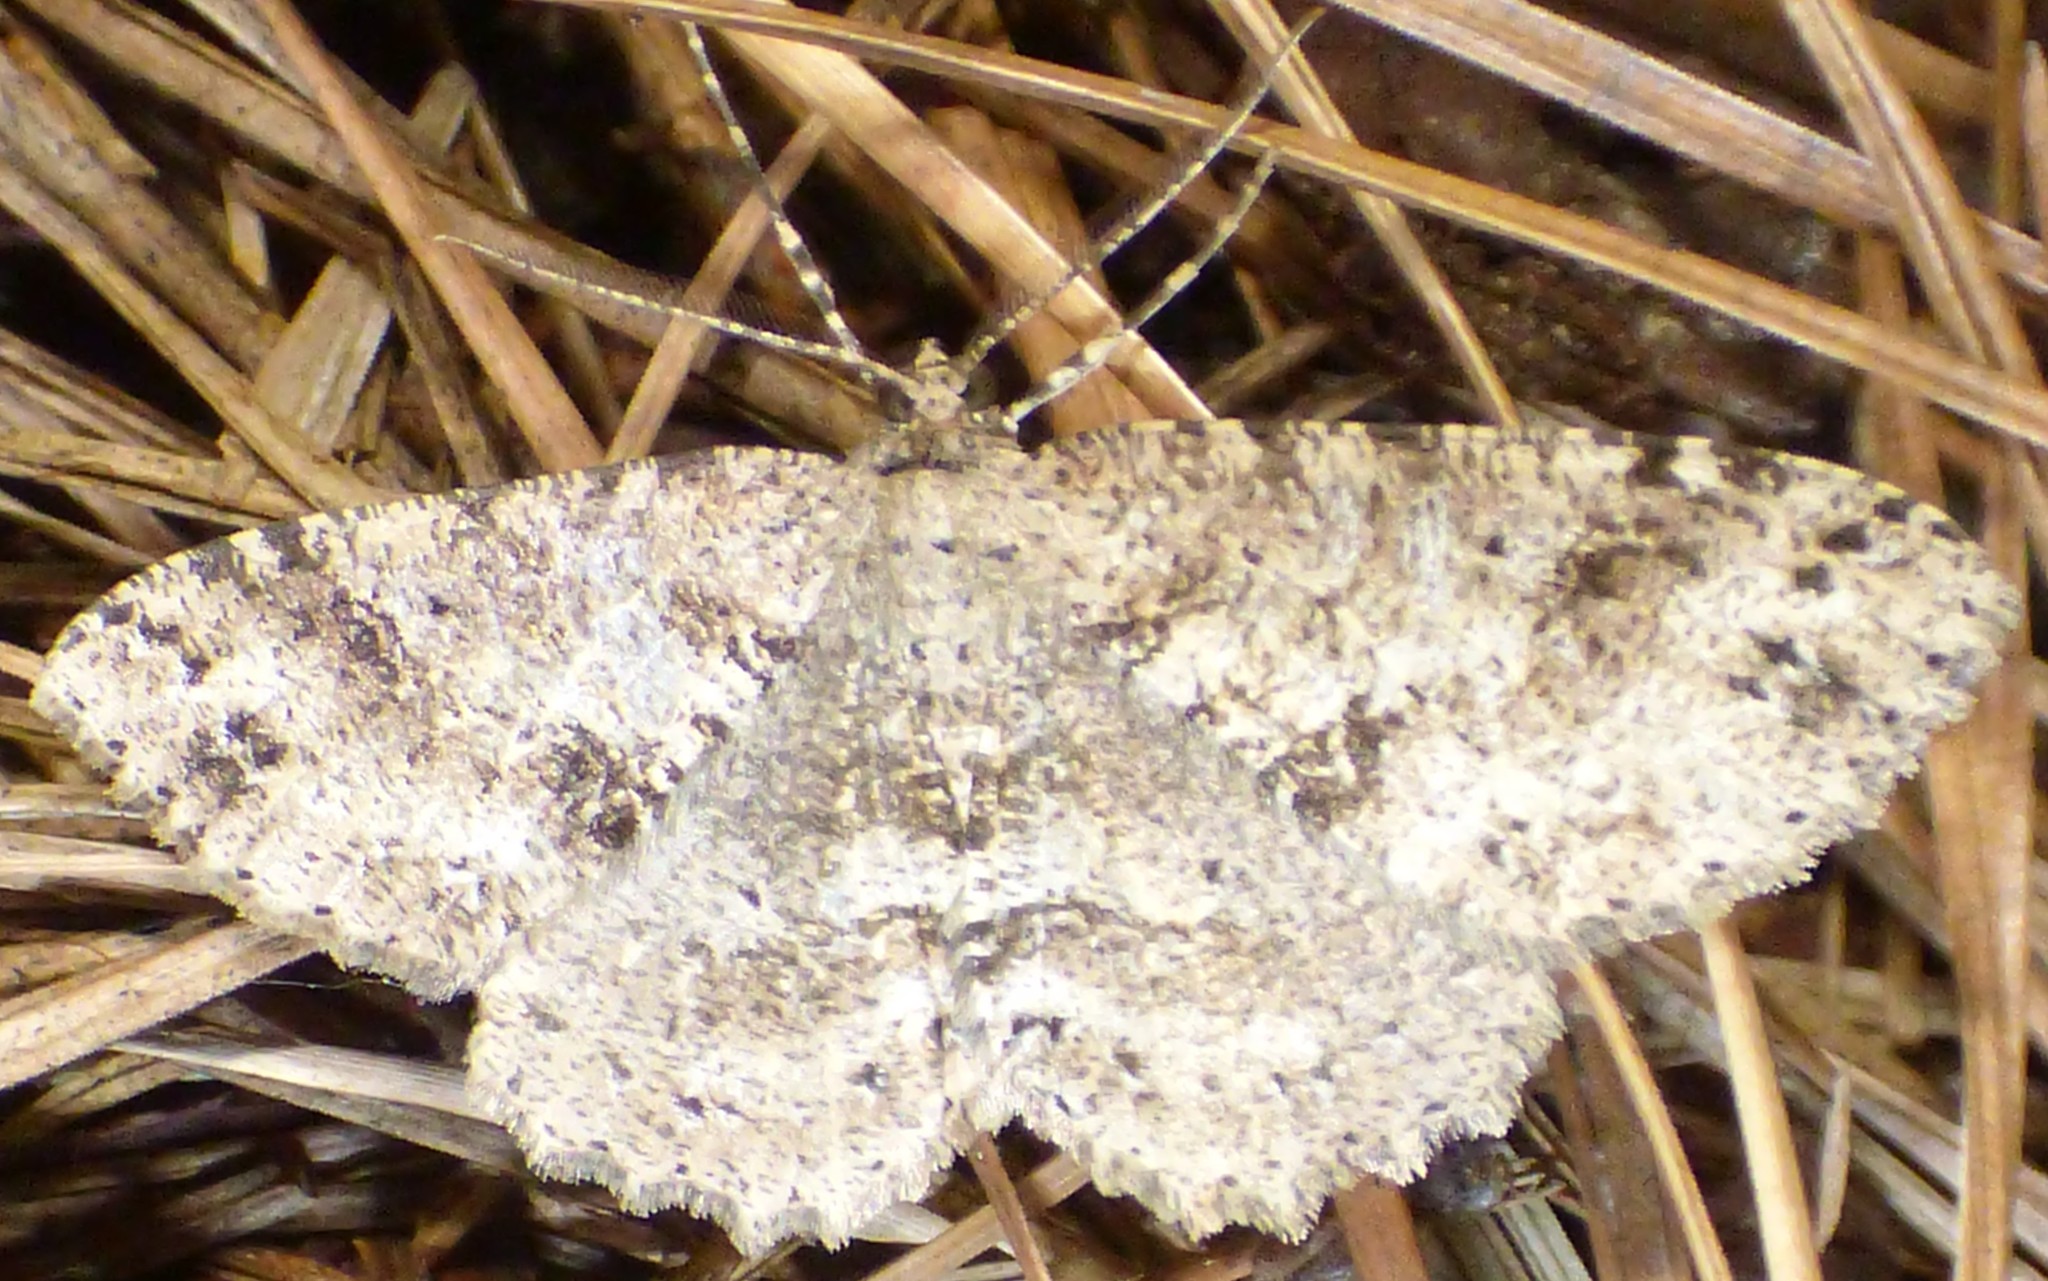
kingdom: Animalia
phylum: Arthropoda
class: Insecta
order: Lepidoptera
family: Geometridae
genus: Melanolophia
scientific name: Melanolophia canadaria
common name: Canadian melanolophia
